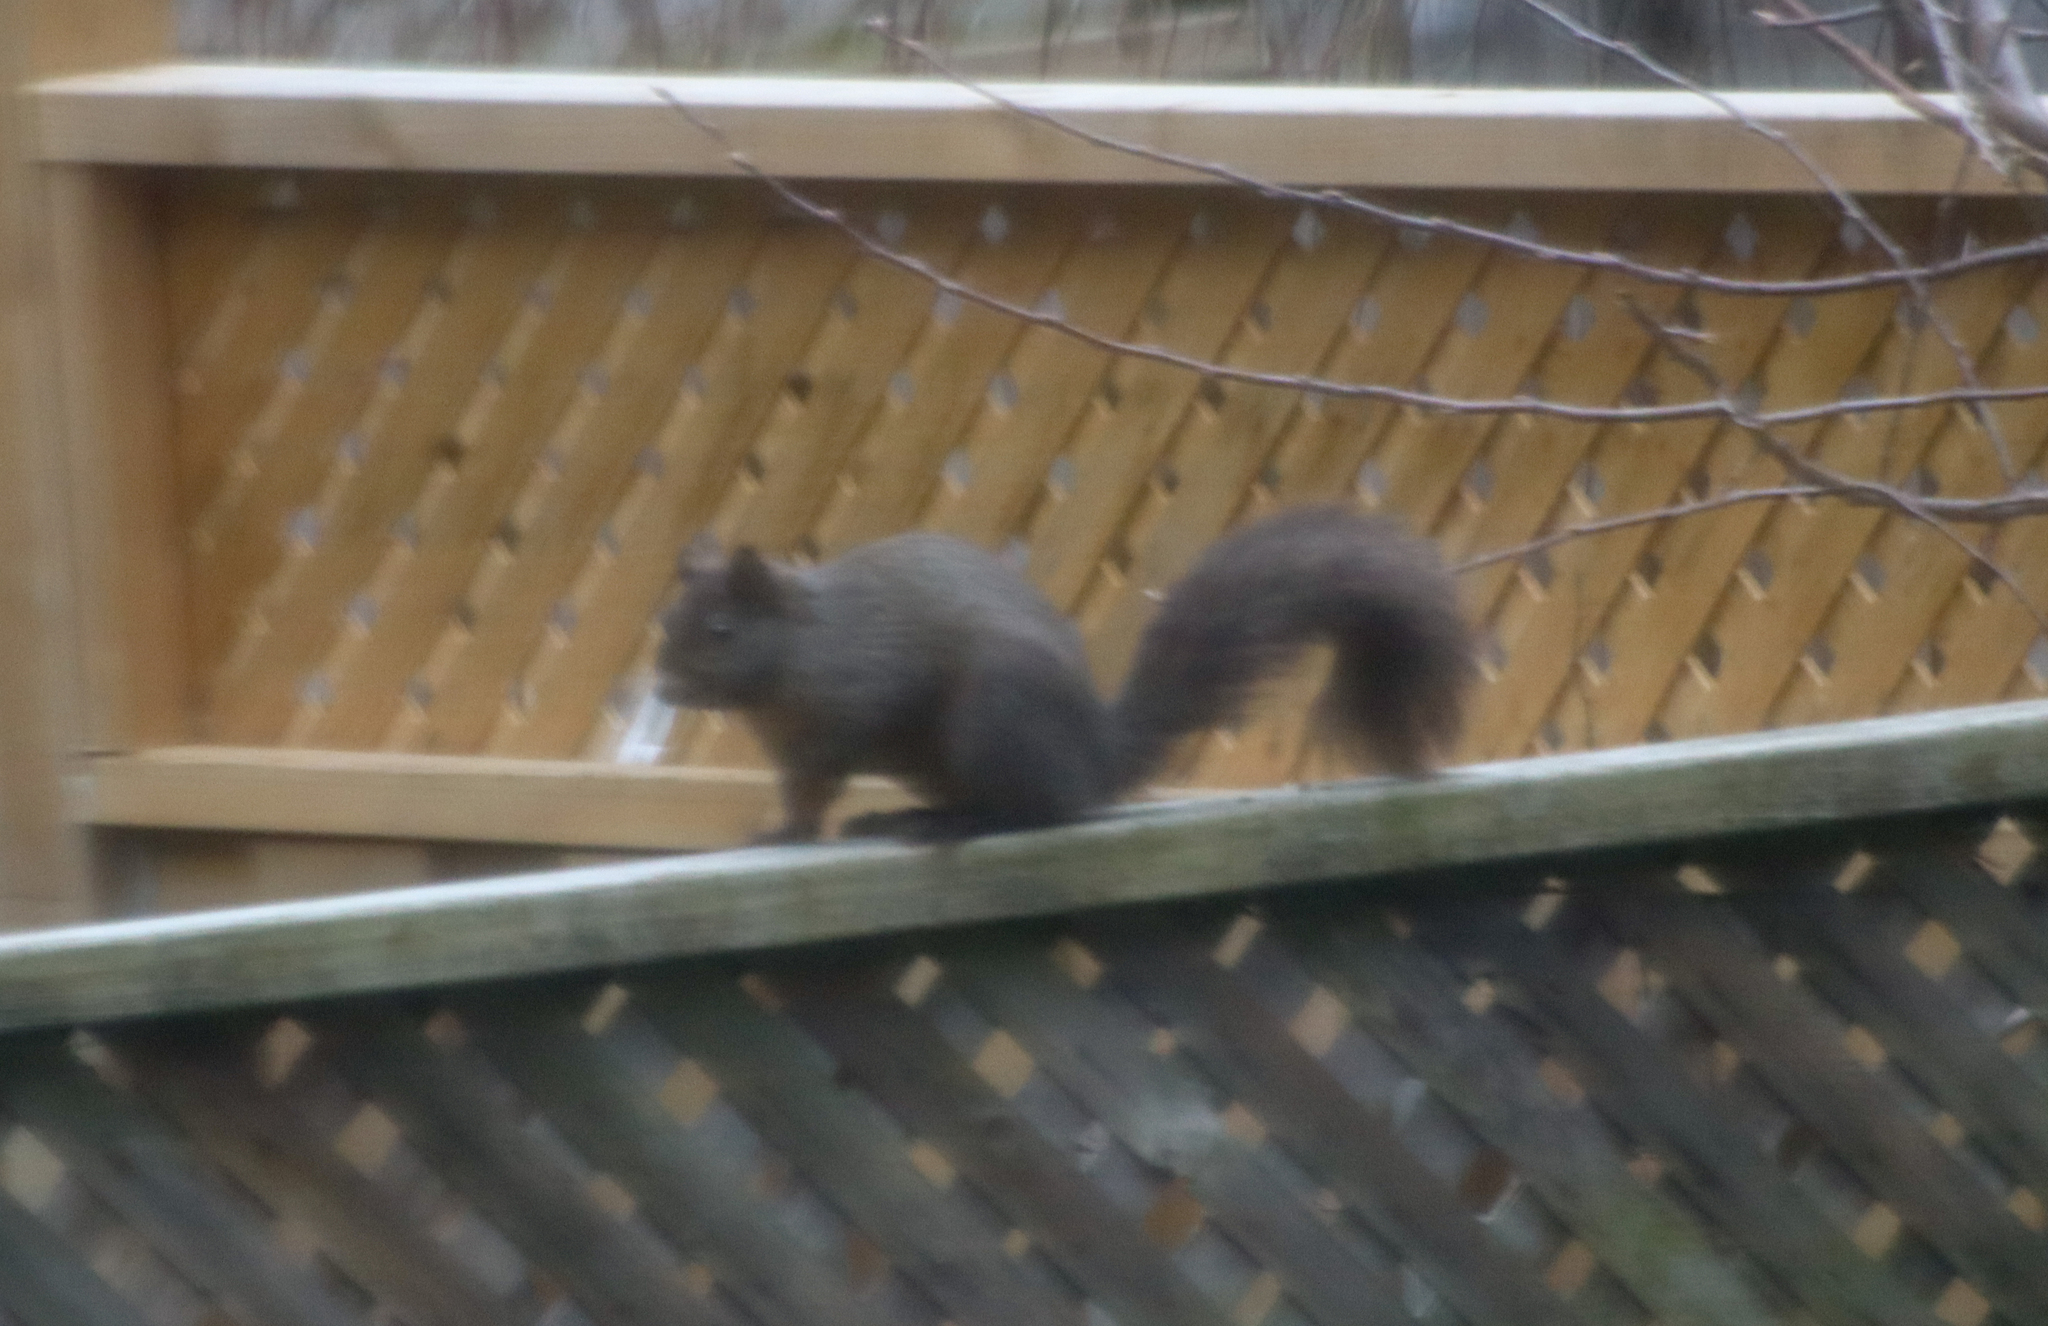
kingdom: Animalia
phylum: Chordata
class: Mammalia
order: Rodentia
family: Sciuridae
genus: Sciurus
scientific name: Sciurus carolinensis
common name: Eastern gray squirrel
